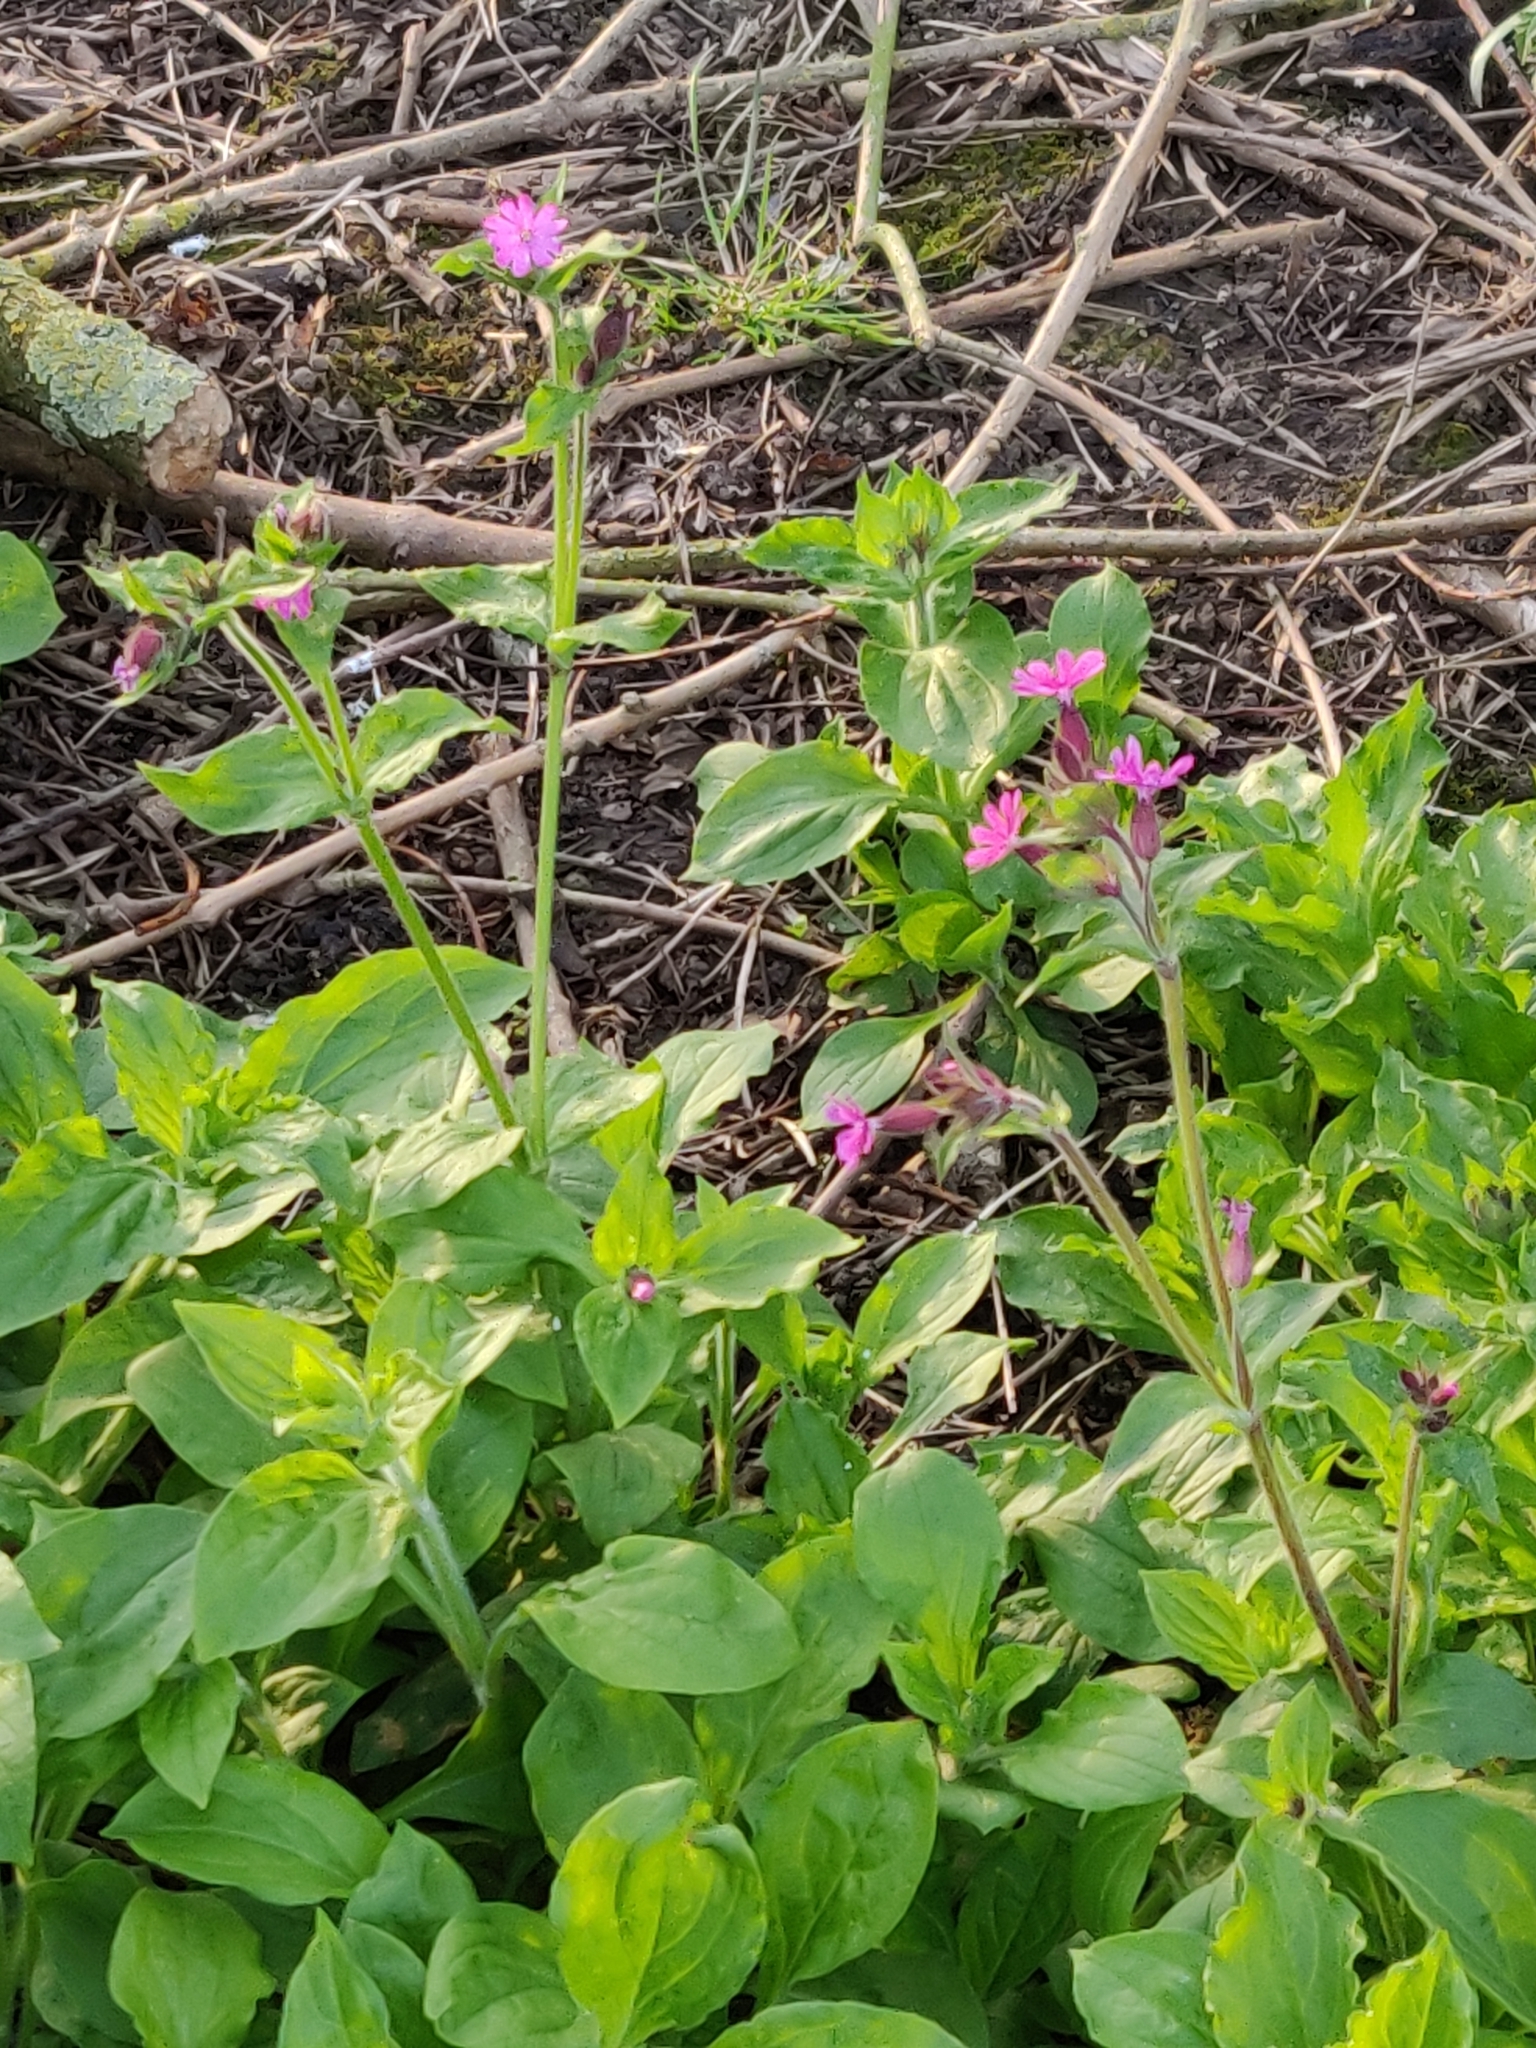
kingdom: Plantae
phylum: Tracheophyta
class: Magnoliopsida
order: Caryophyllales
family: Caryophyllaceae
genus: Silene
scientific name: Silene dioica
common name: Red campion
